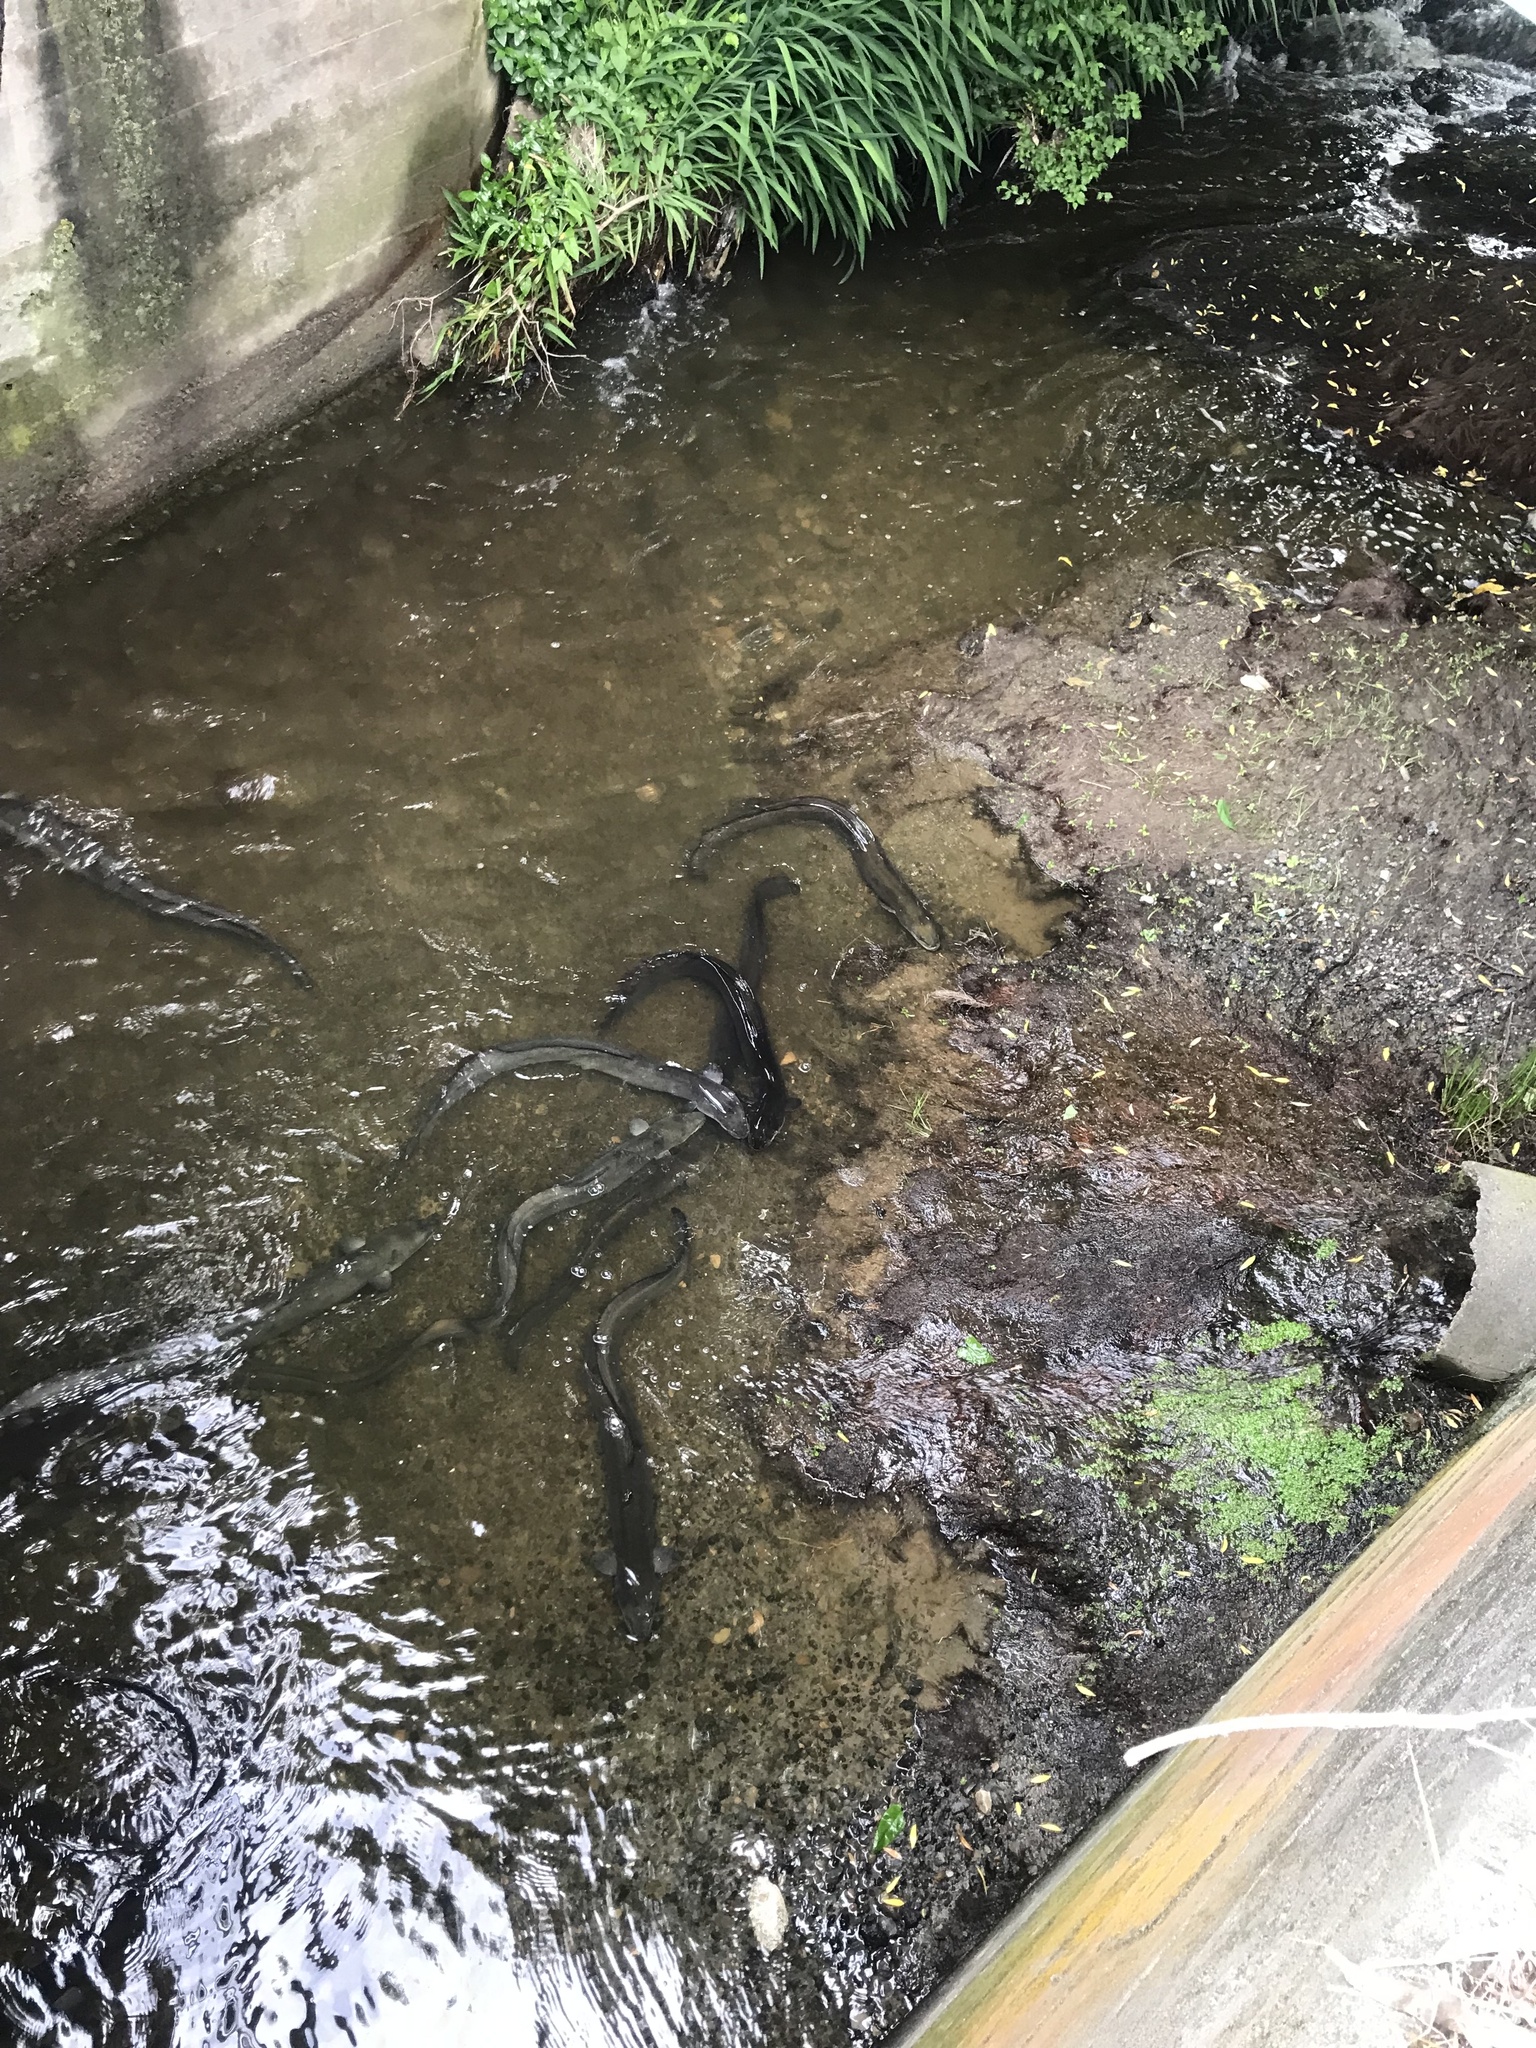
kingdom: Animalia
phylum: Chordata
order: Anguilliformes
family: Anguillidae
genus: Anguilla
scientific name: Anguilla dieffenbachii
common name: New zealand longfin eel
